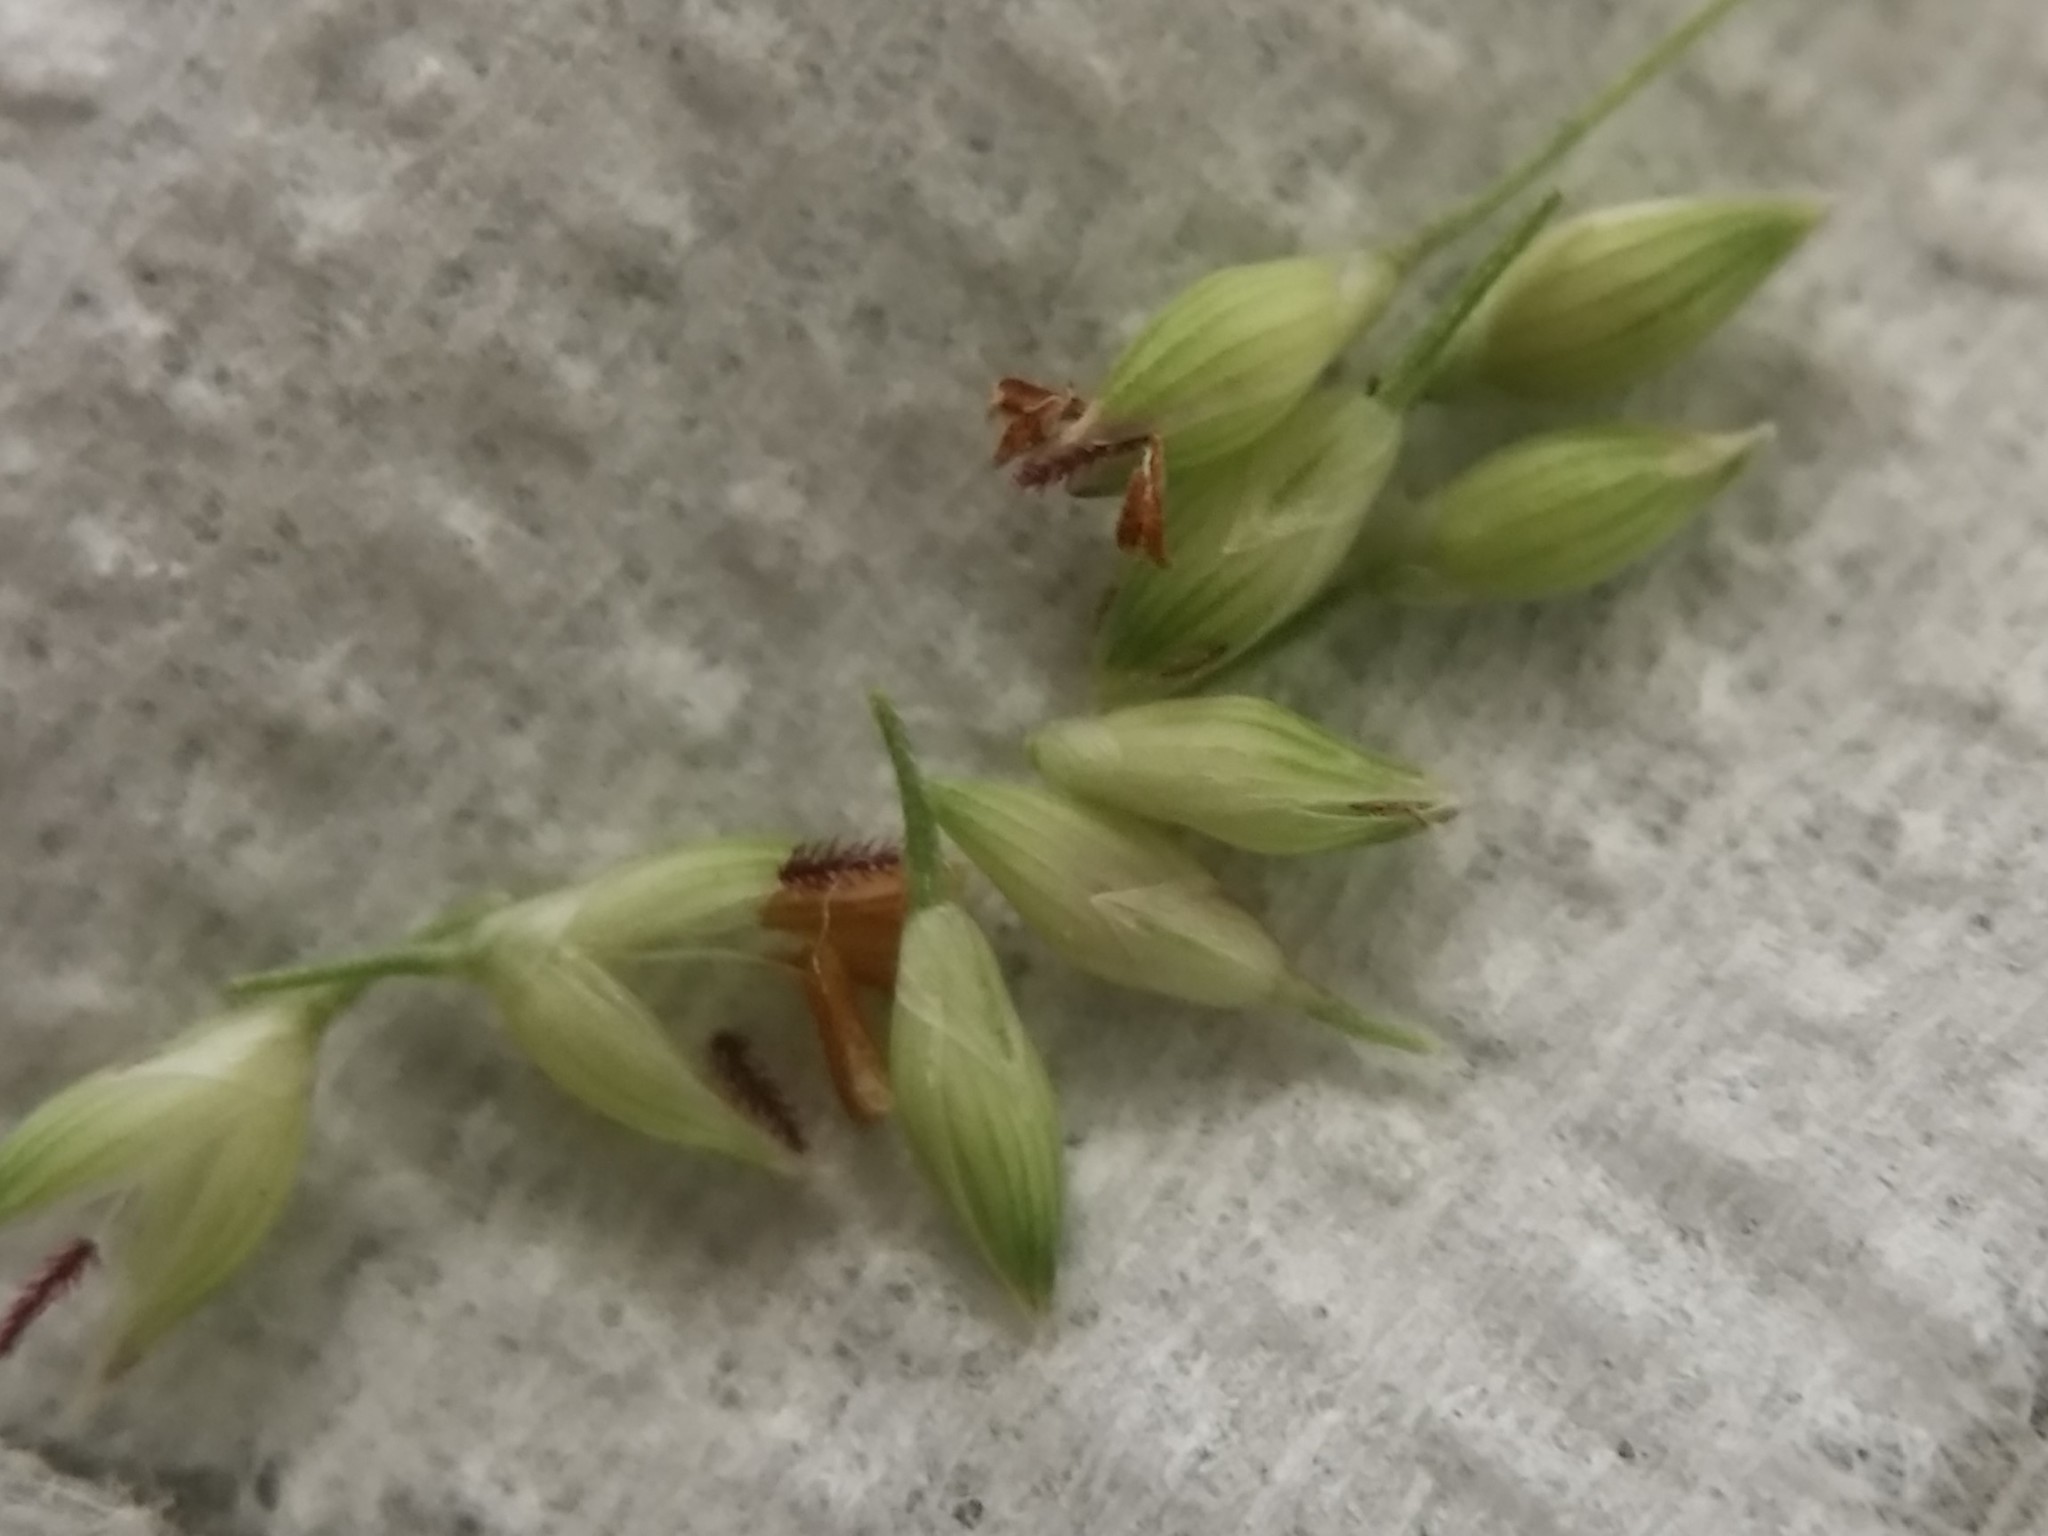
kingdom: Plantae
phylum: Tracheophyta
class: Liliopsida
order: Poales
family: Poaceae
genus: Panicum
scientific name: Panicum capillare
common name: Witch-grass
